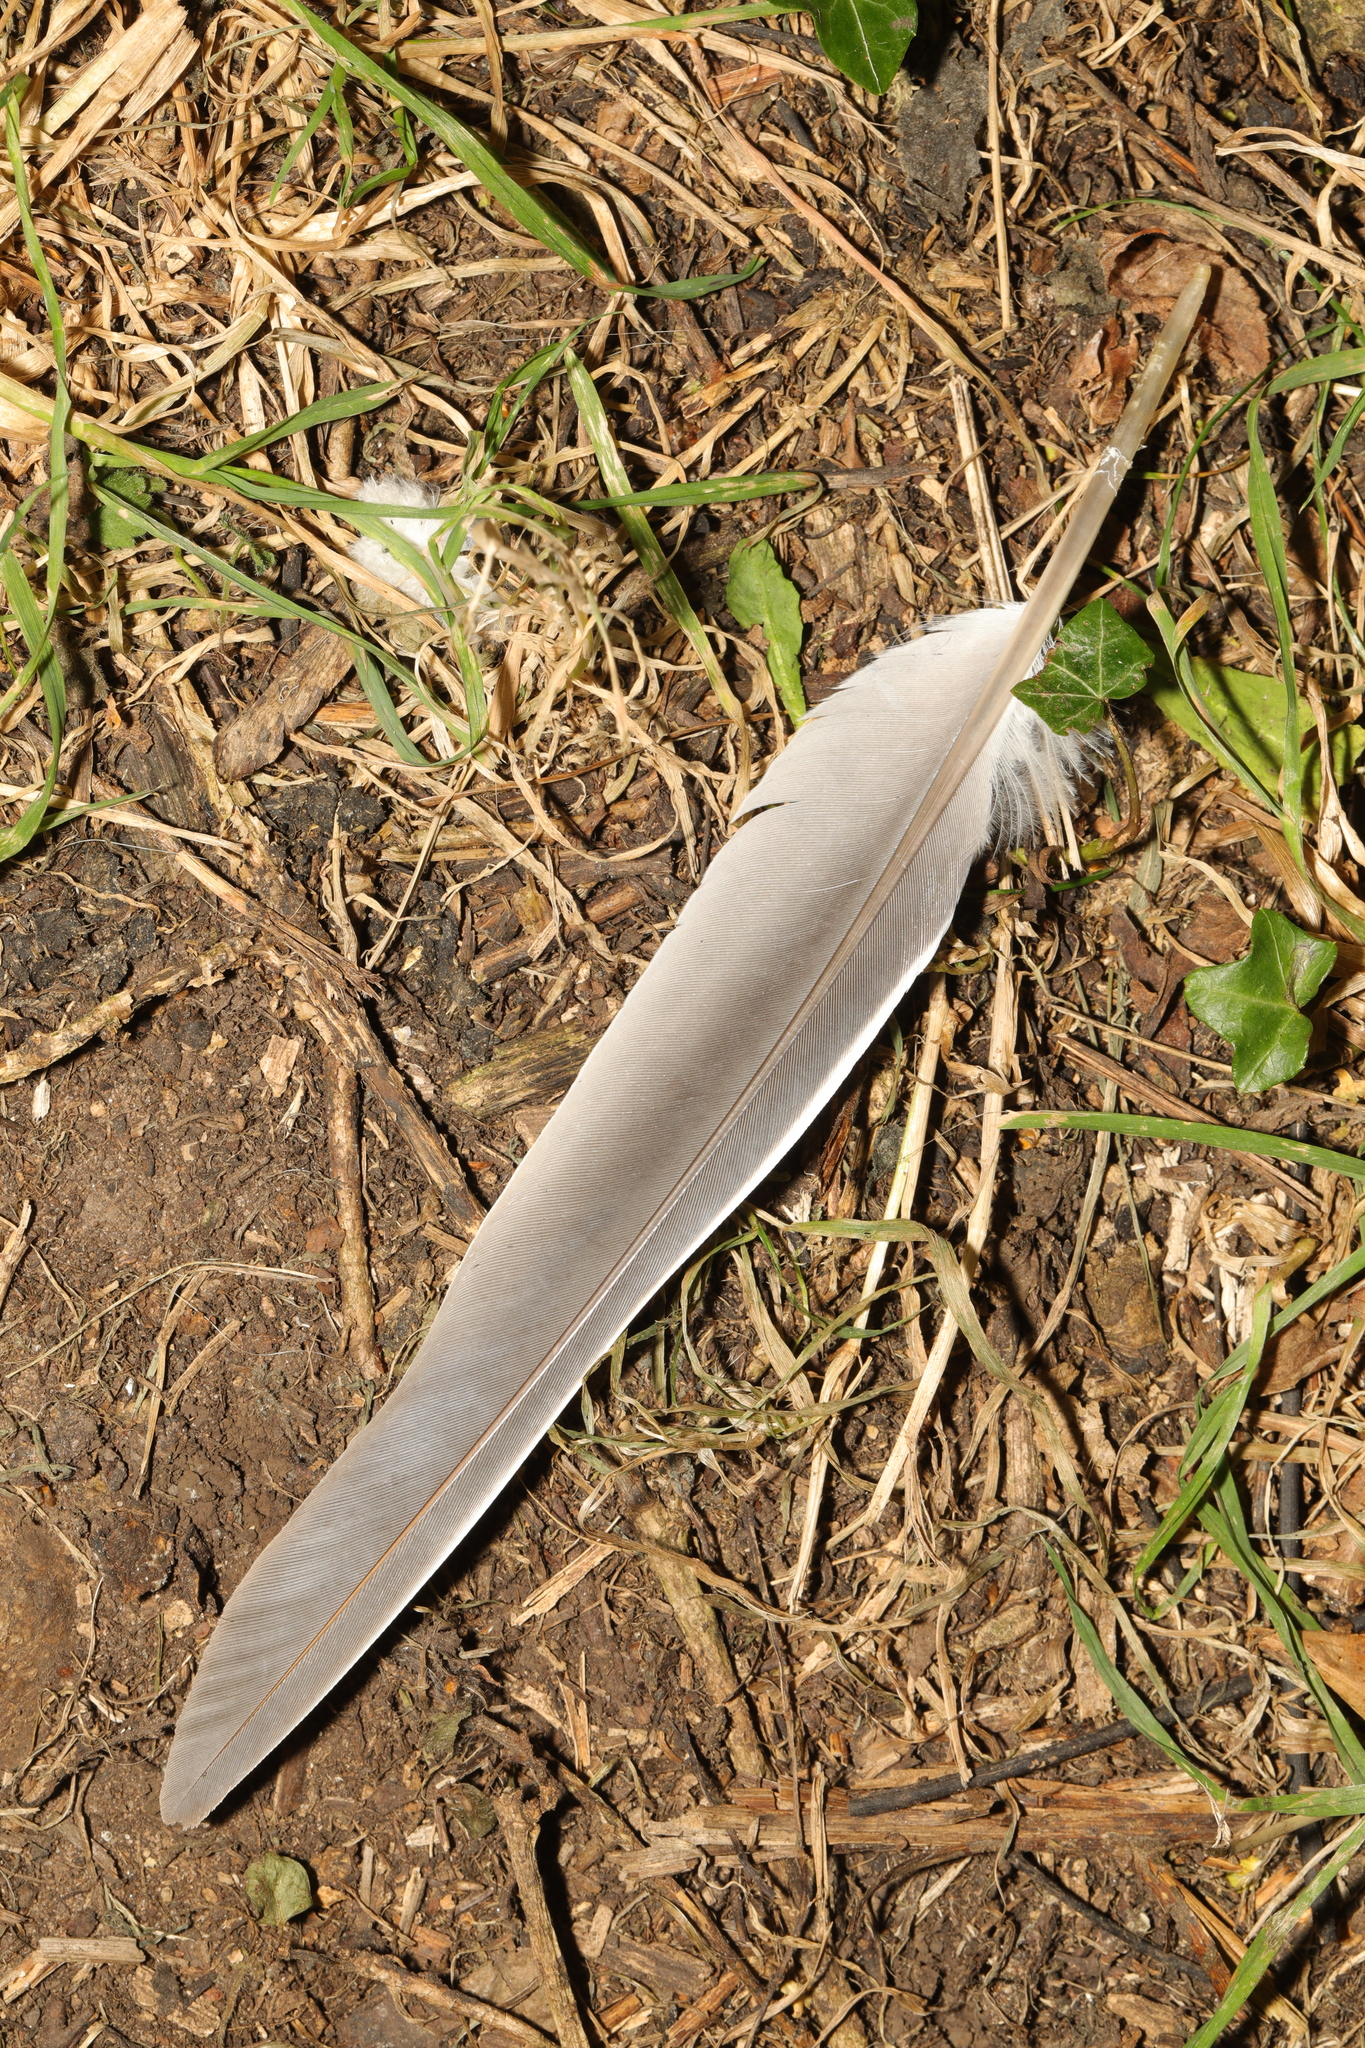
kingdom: Animalia
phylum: Chordata
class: Aves
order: Columbiformes
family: Columbidae
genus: Columba
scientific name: Columba palumbus
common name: Common wood pigeon
